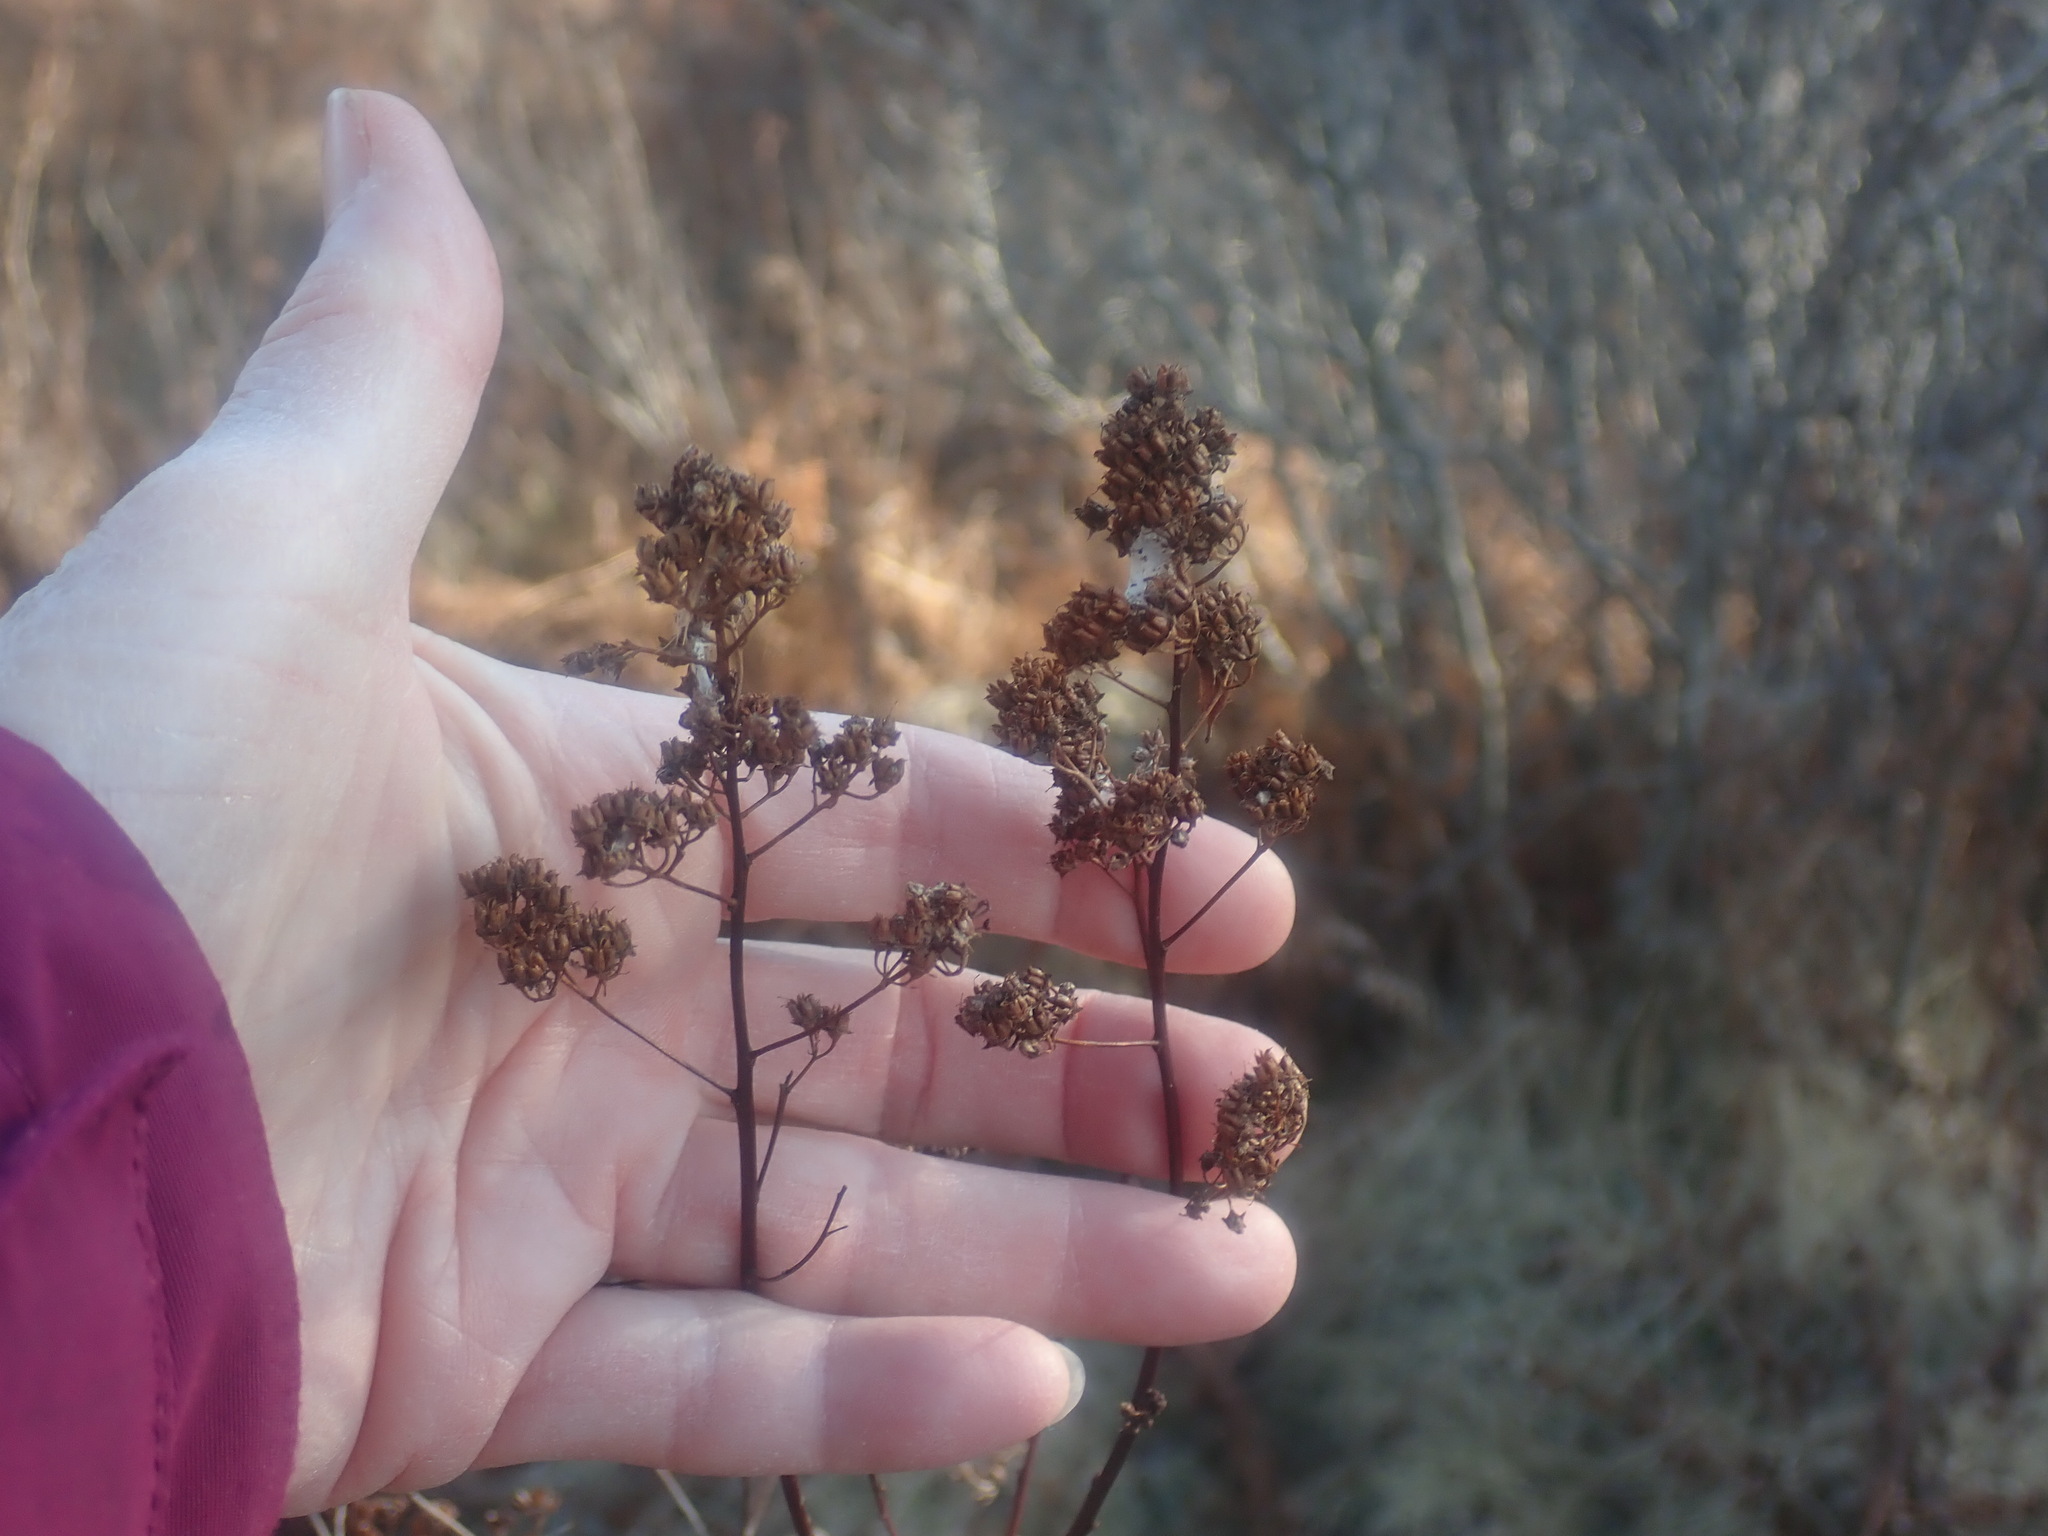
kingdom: Plantae
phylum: Tracheophyta
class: Magnoliopsida
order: Rosales
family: Rosaceae
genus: Spiraea
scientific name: Spiraea alba
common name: Pale bridewort
